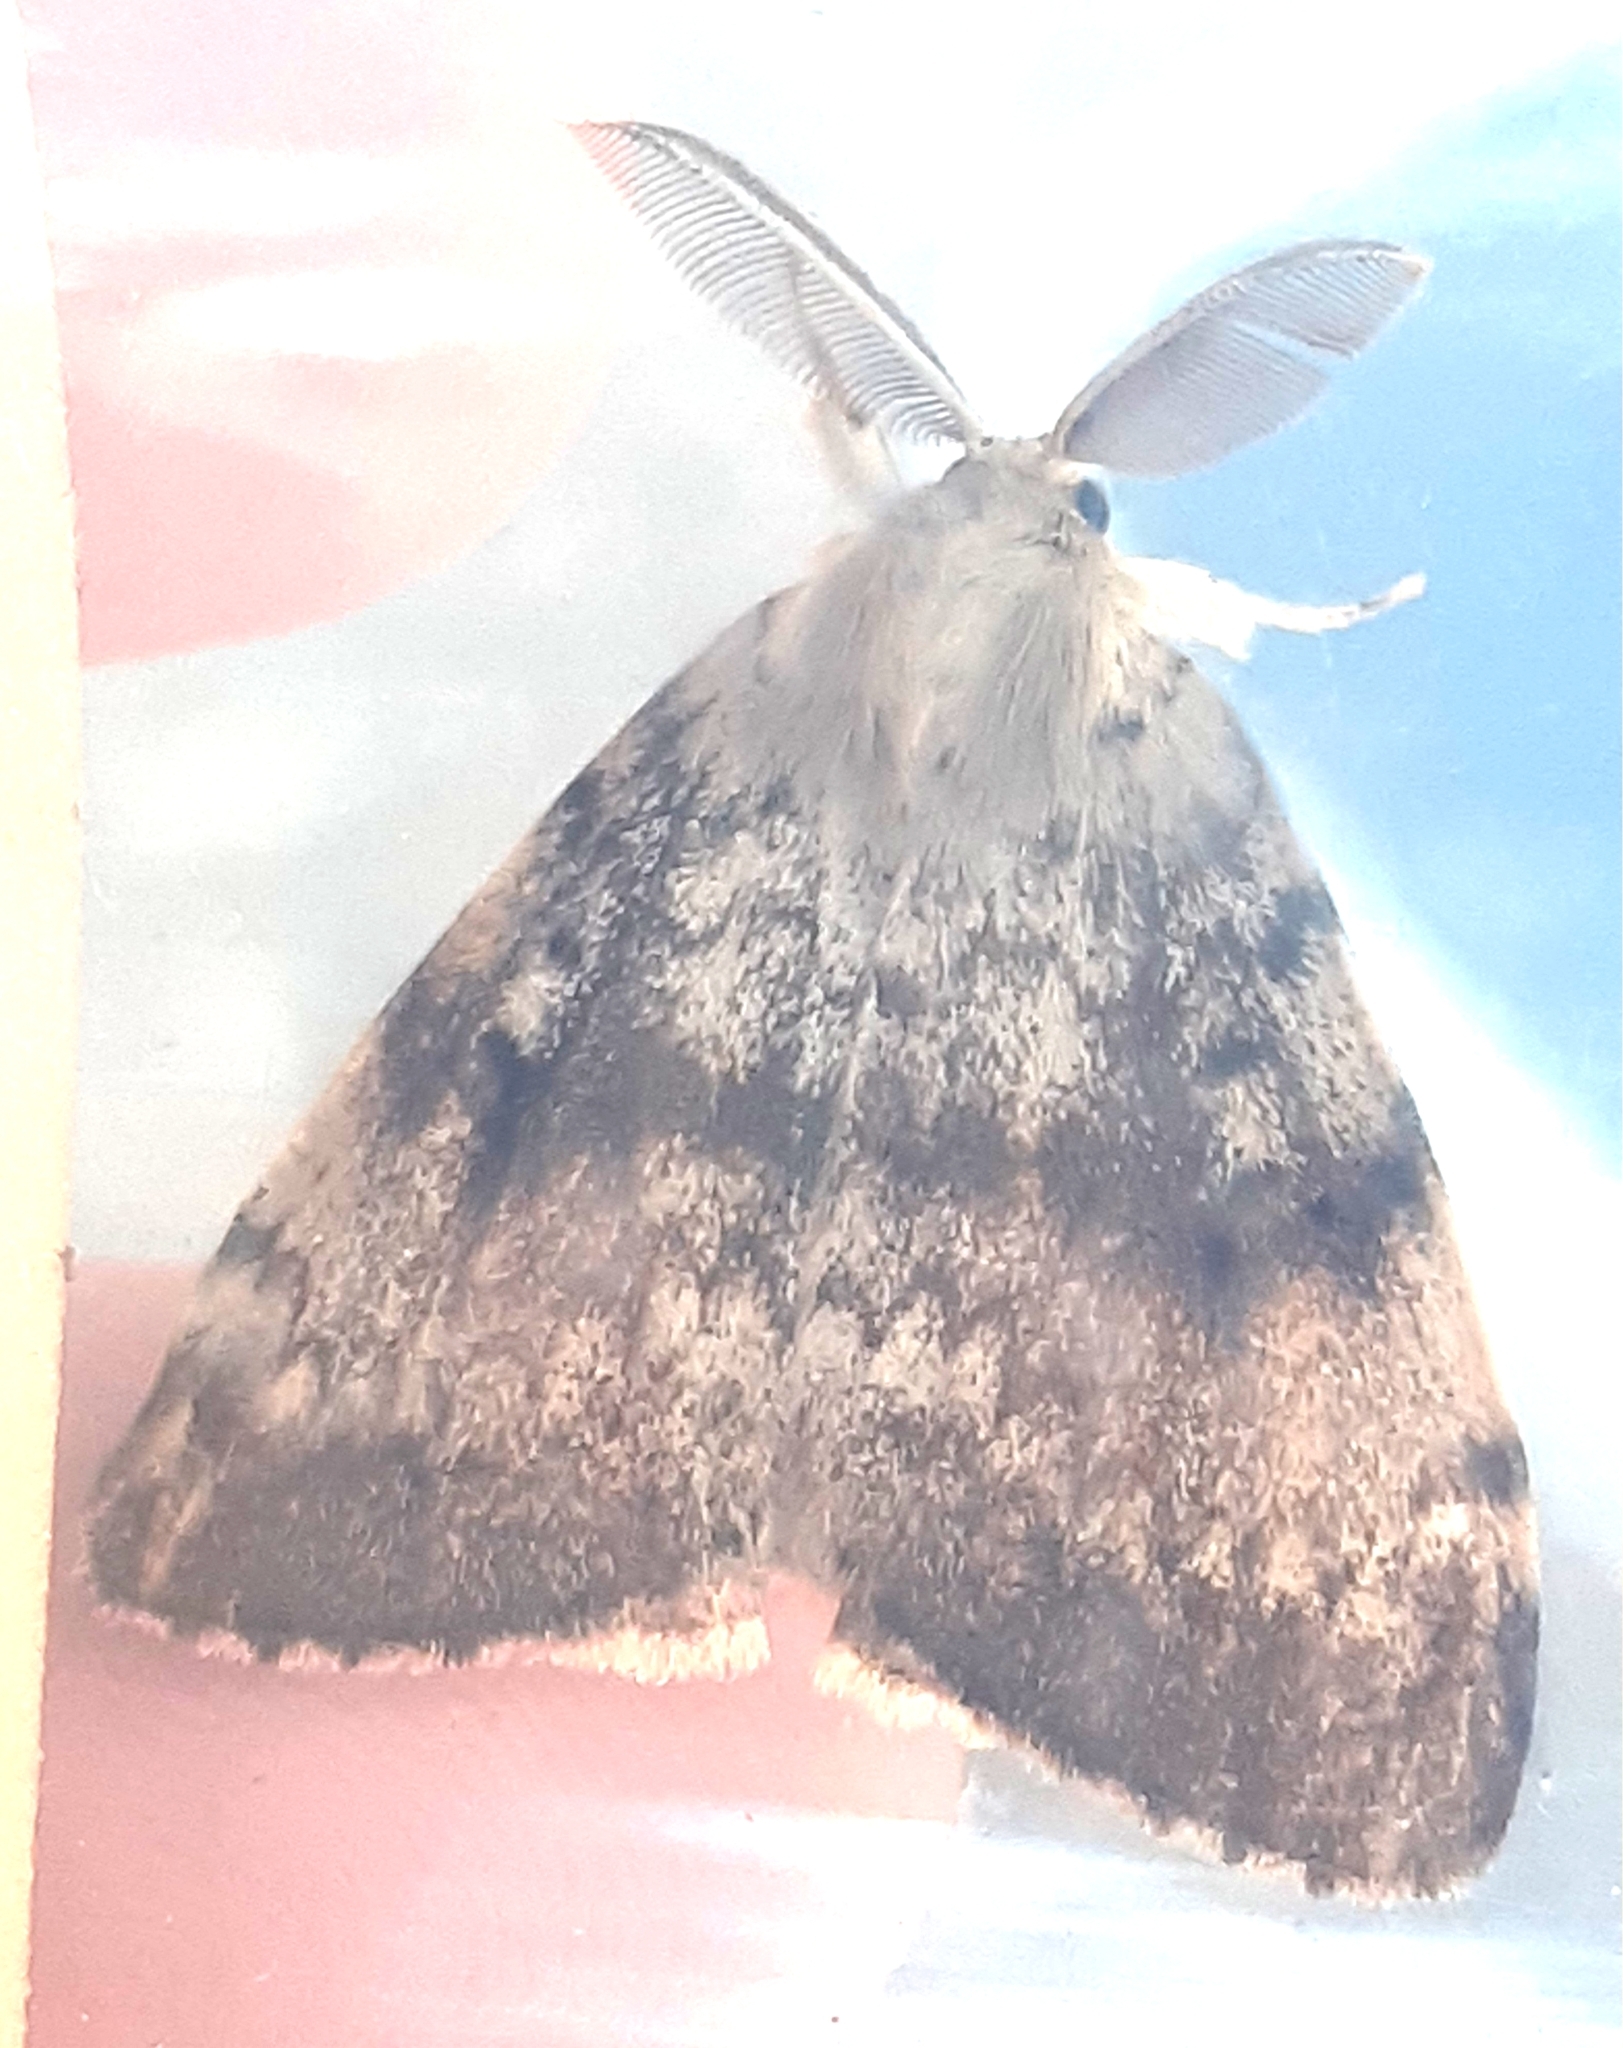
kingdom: Animalia
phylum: Arthropoda
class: Insecta
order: Lepidoptera
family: Erebidae
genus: Lymantria
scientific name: Lymantria dispar
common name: Gypsy moth
